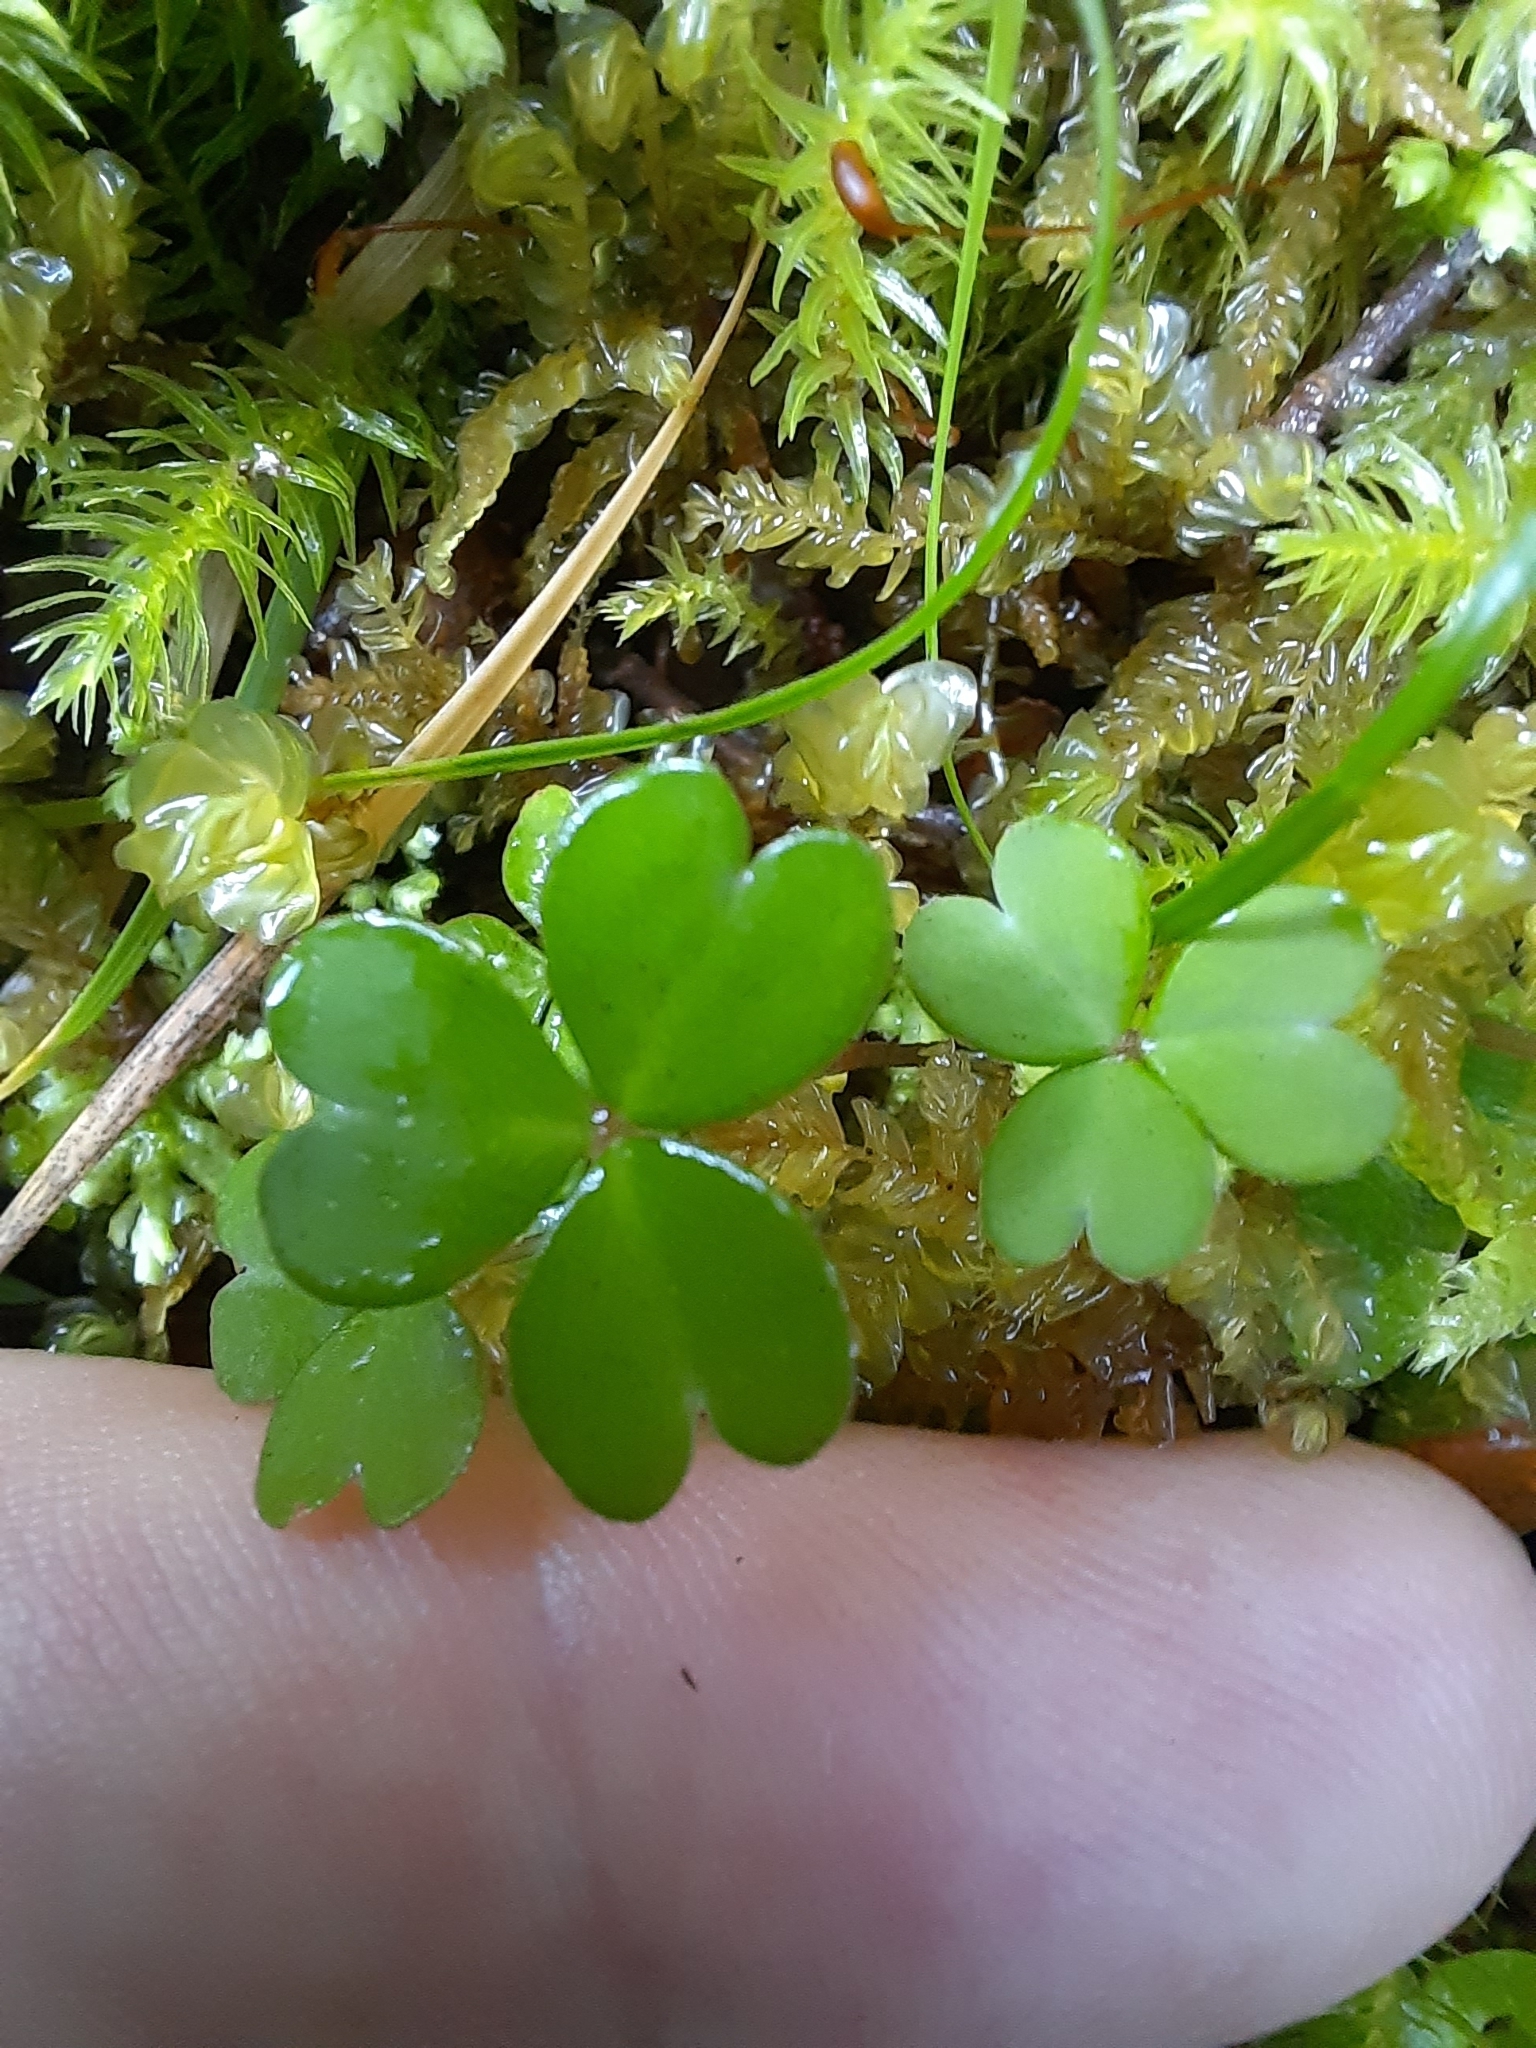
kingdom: Plantae
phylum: Tracheophyta
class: Magnoliopsida
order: Oxalidales
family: Oxalidaceae
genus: Oxalis
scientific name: Oxalis magellanica
